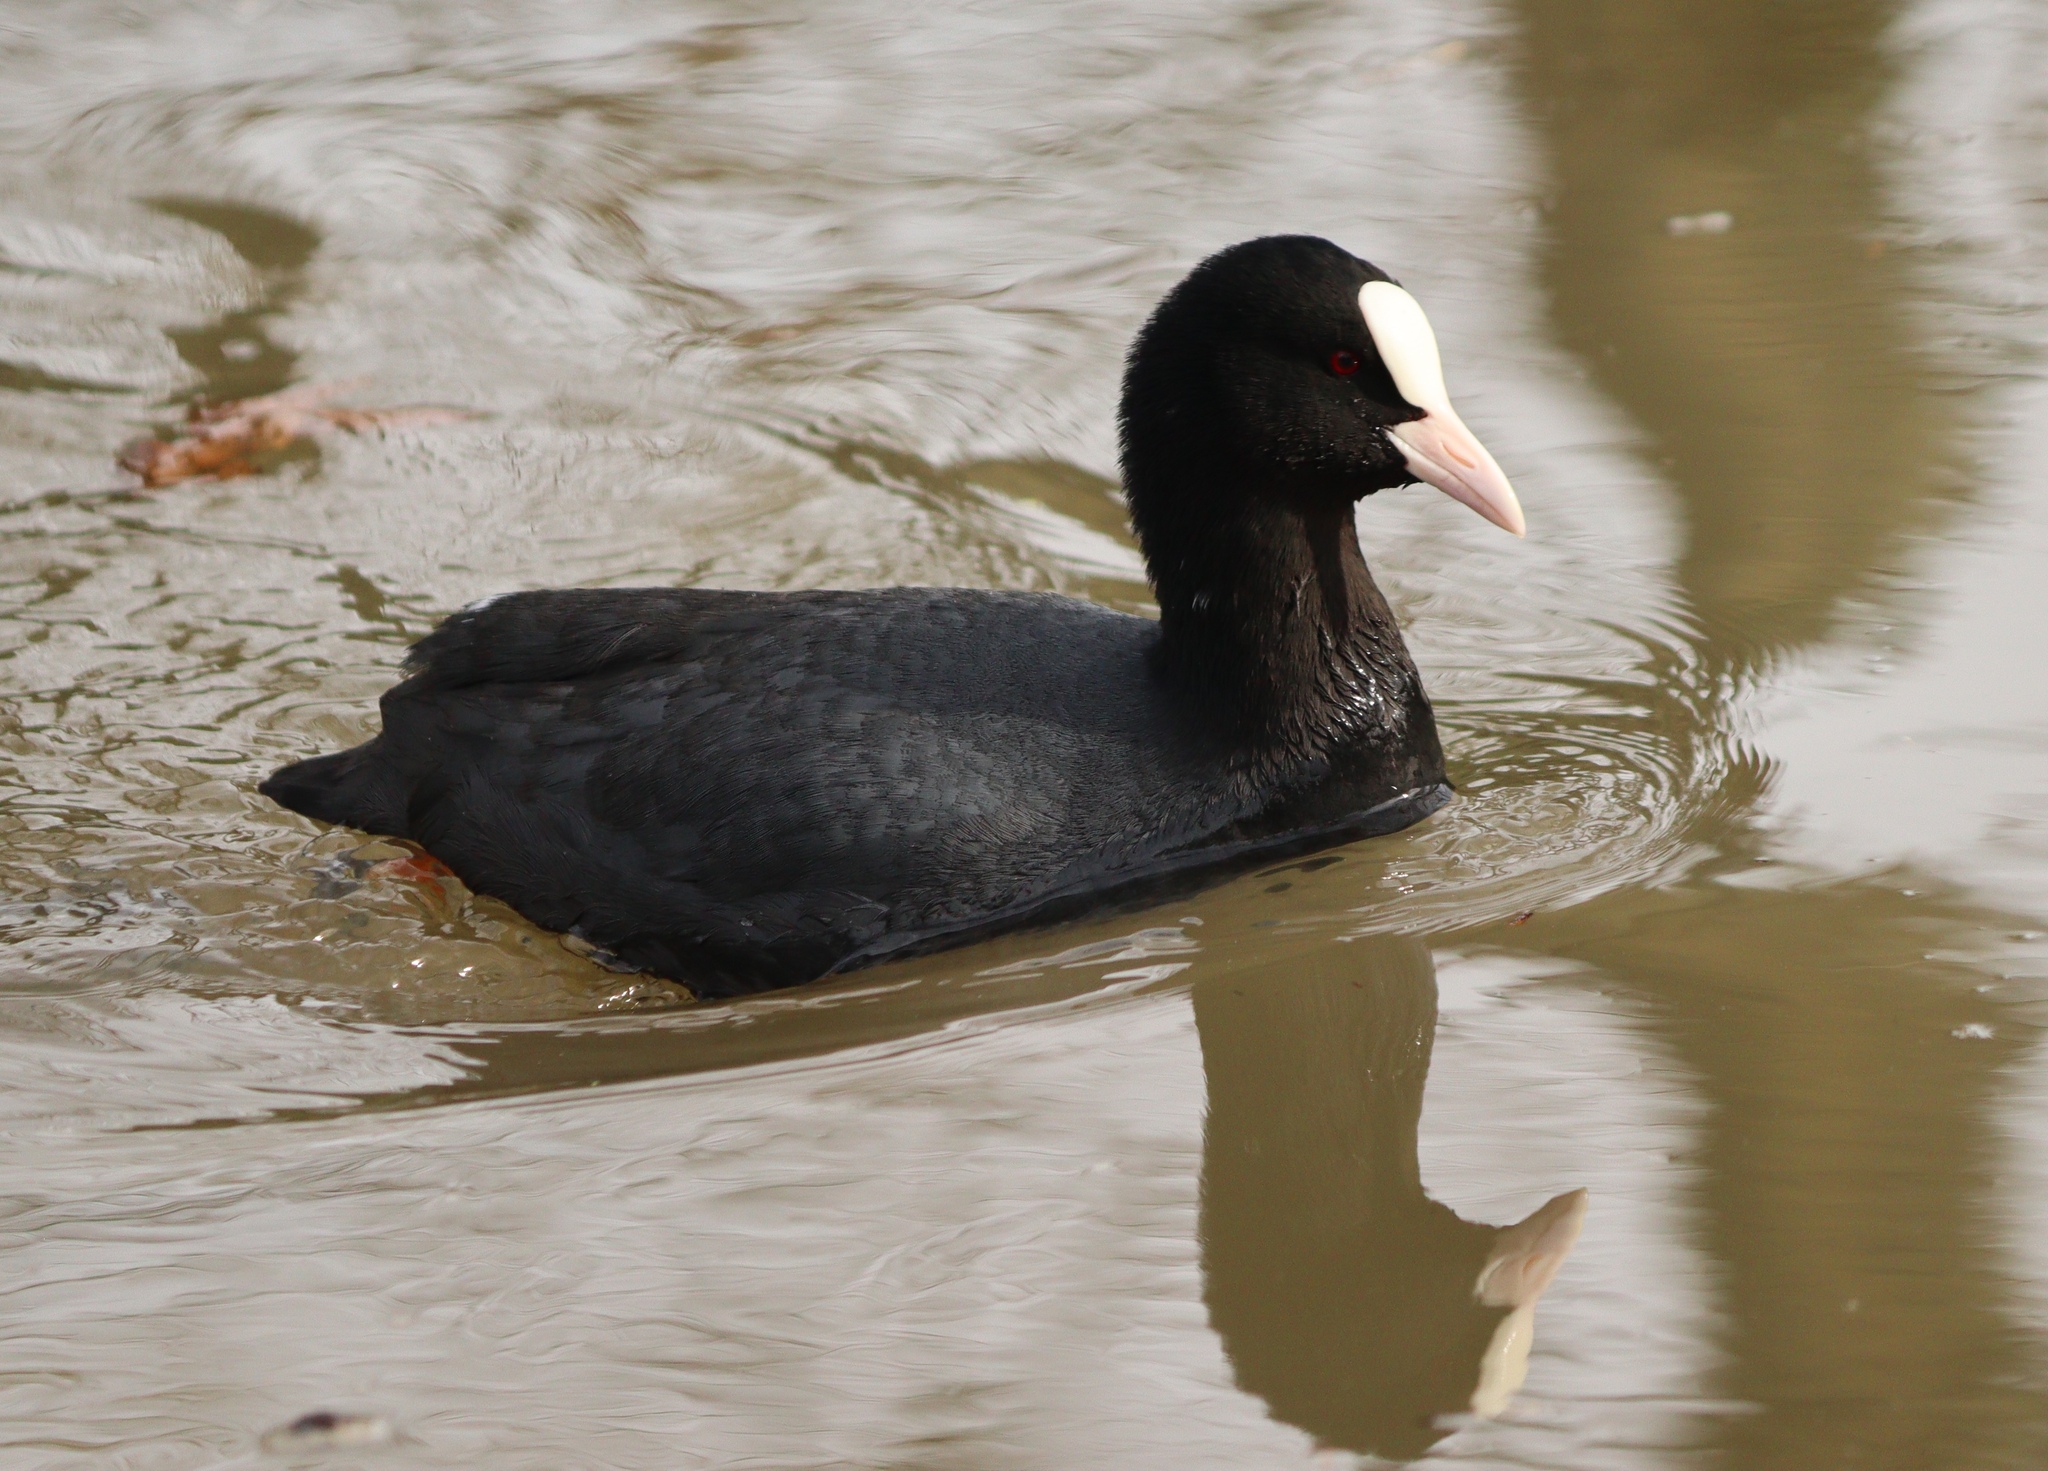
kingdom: Animalia
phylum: Chordata
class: Aves
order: Gruiformes
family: Rallidae
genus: Fulica
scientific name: Fulica atra
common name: Eurasian coot
